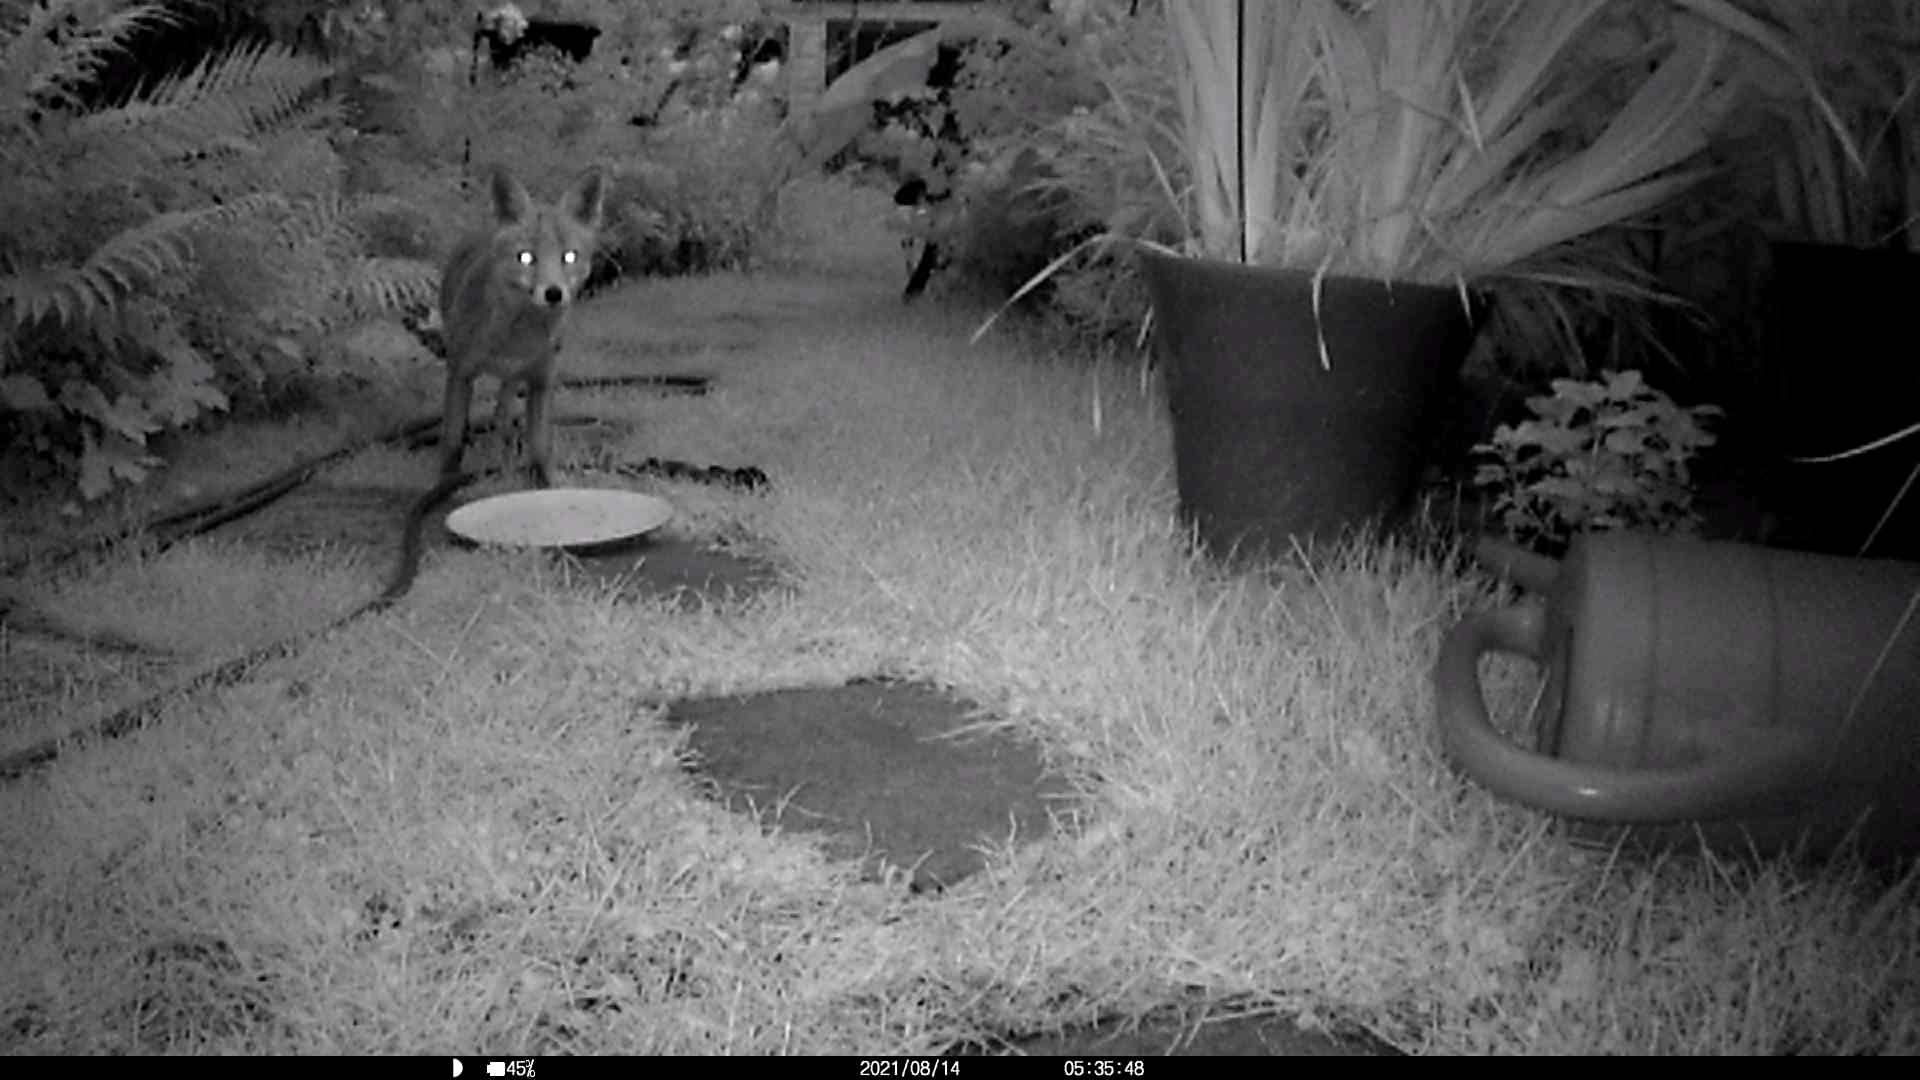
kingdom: Animalia
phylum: Chordata
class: Mammalia
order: Carnivora
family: Canidae
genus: Vulpes
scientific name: Vulpes vulpes
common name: Red fox
